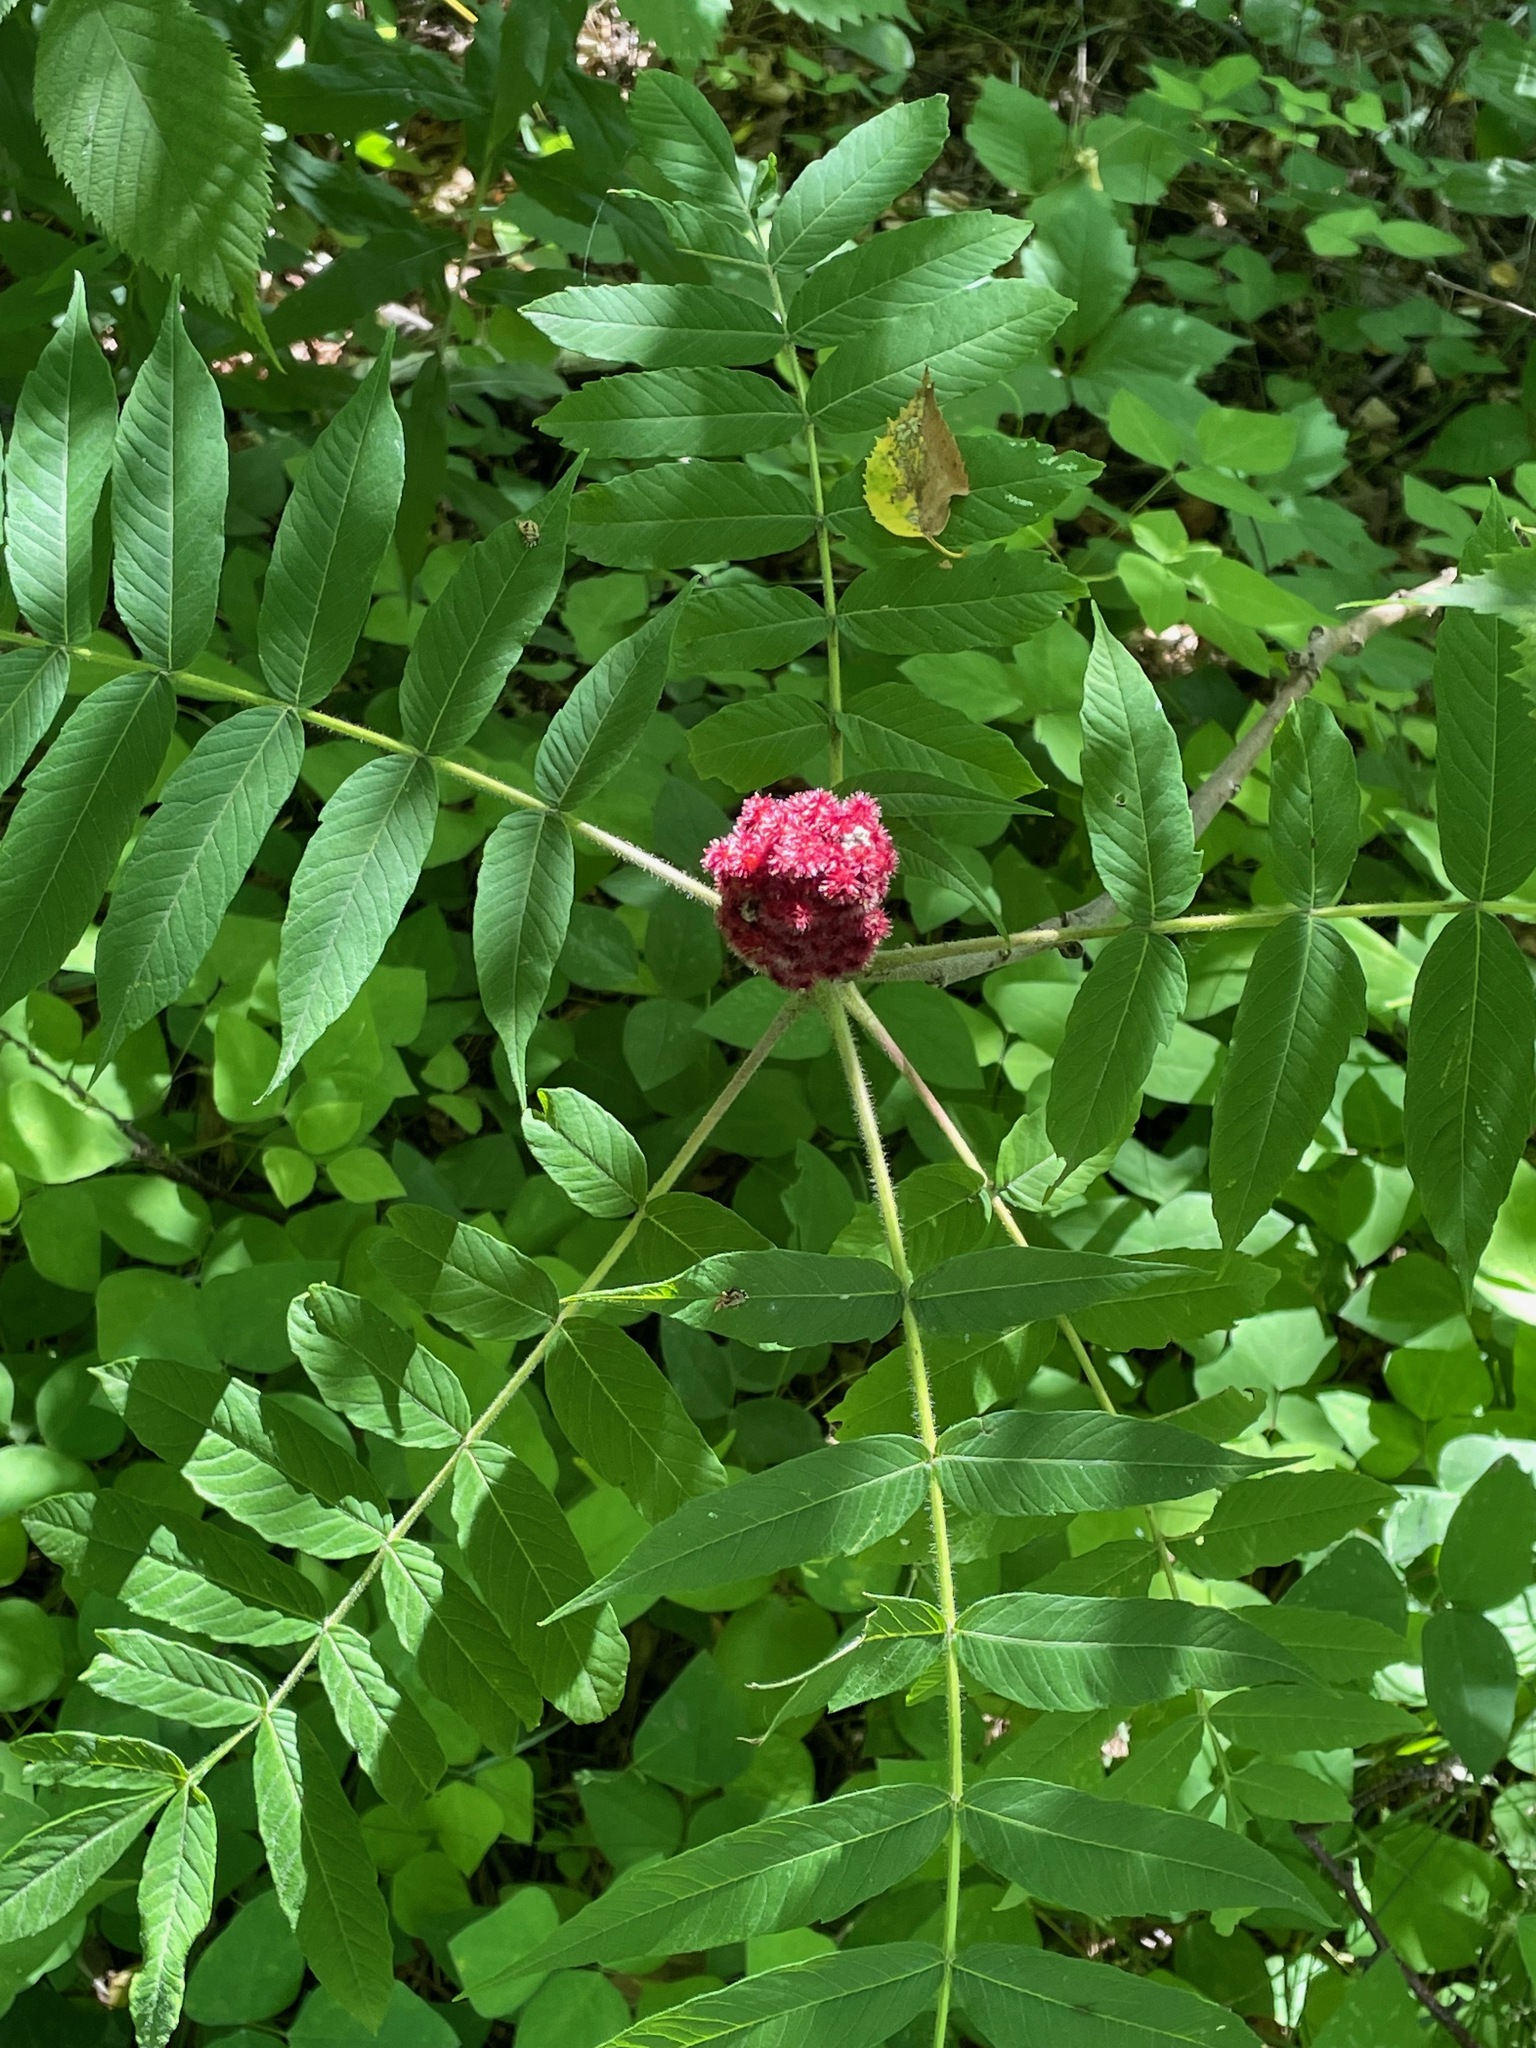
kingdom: Plantae
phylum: Tracheophyta
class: Magnoliopsida
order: Sapindales
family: Anacardiaceae
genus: Rhus
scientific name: Rhus typhina
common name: Staghorn sumac
